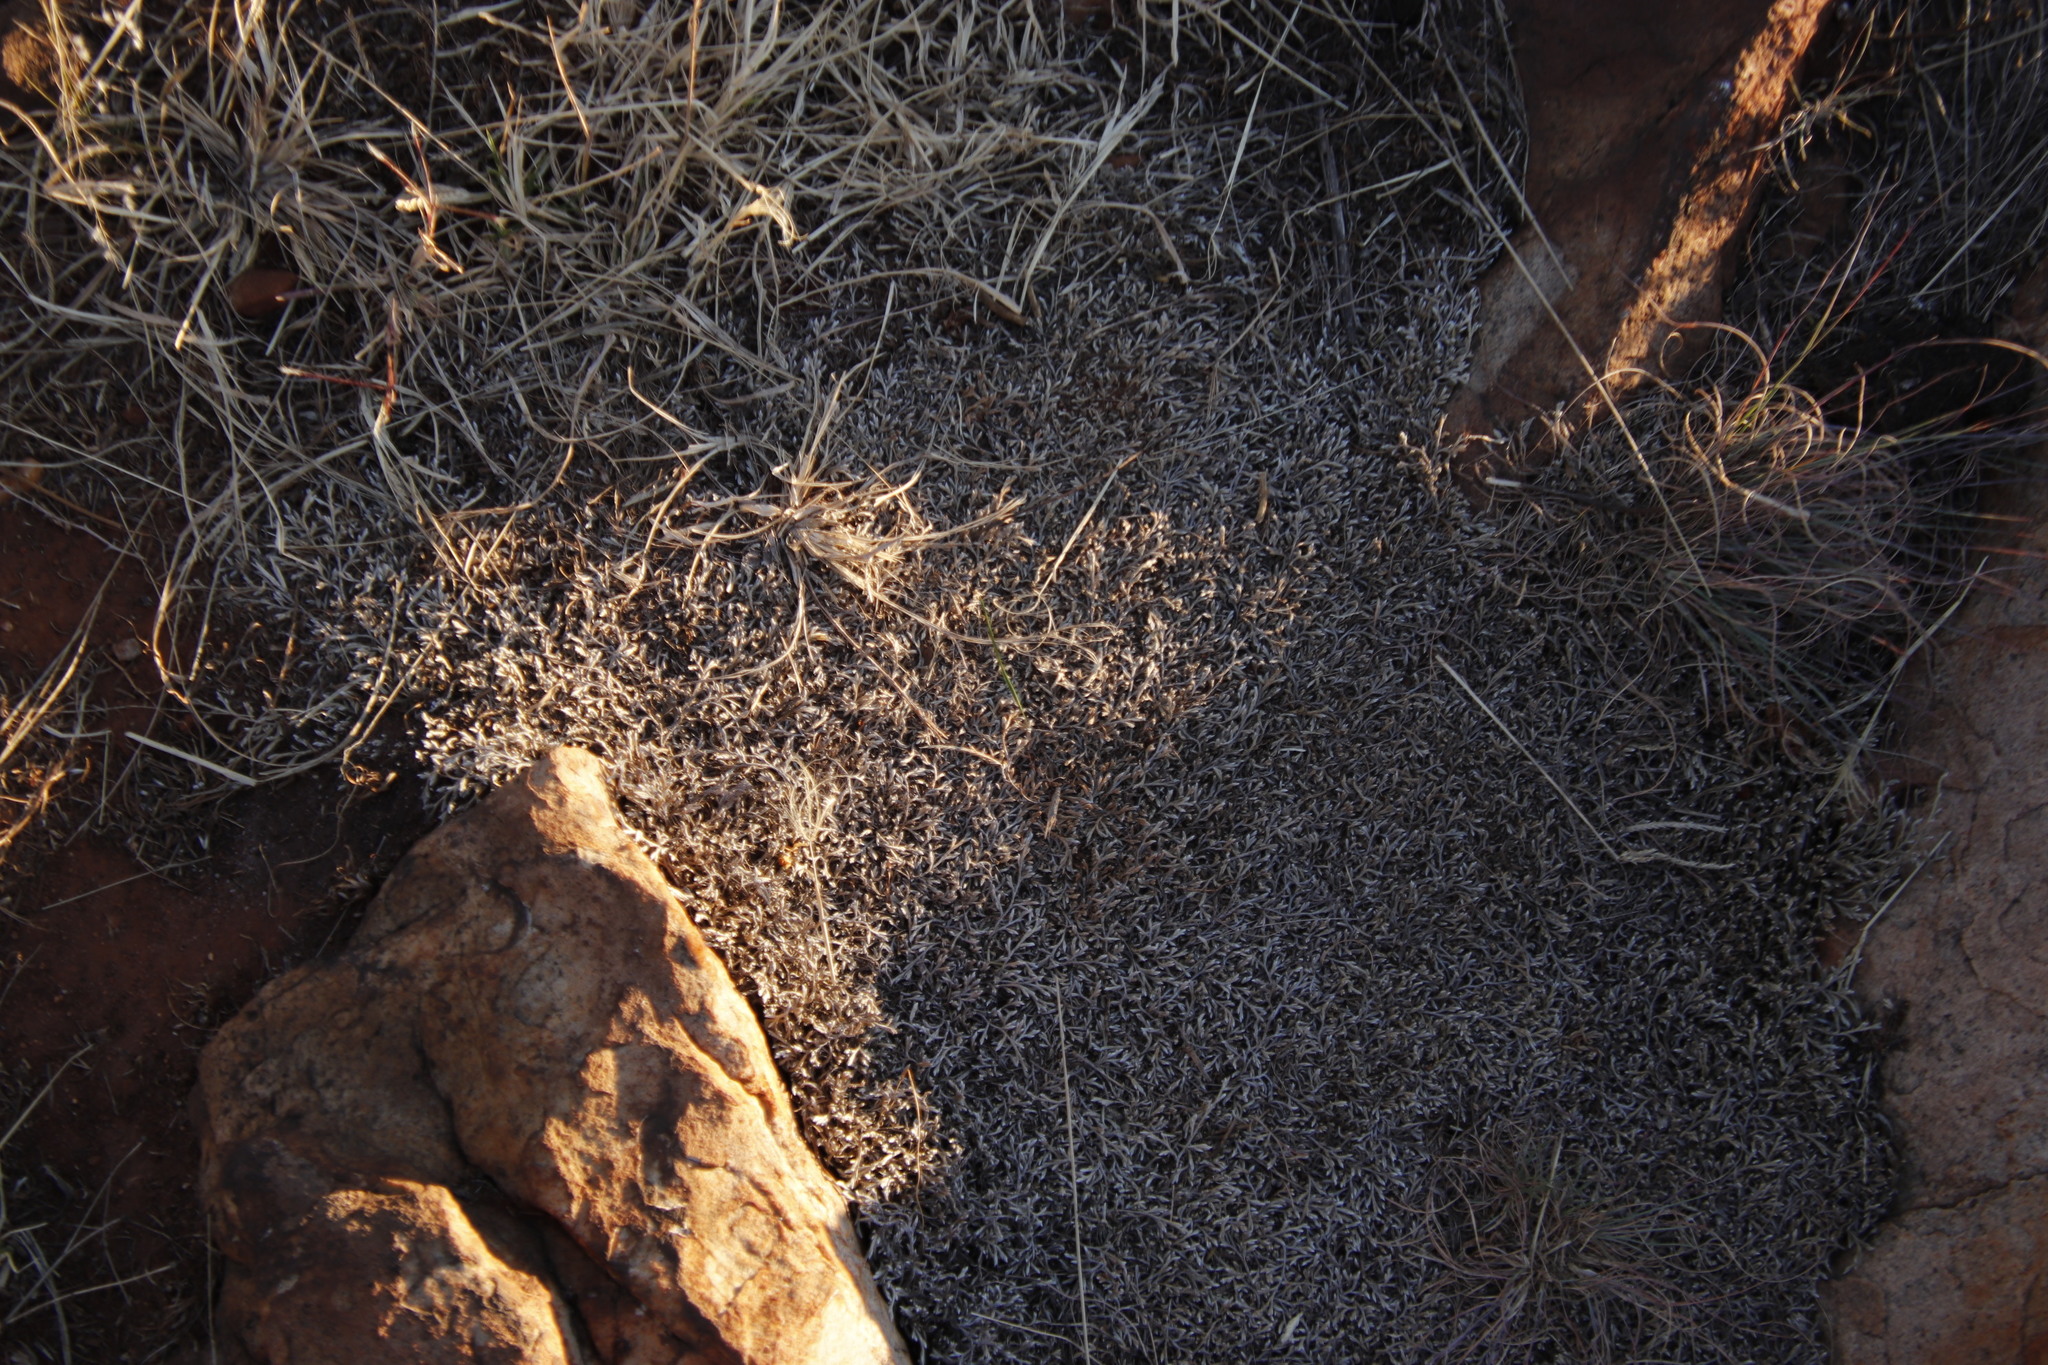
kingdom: Plantae
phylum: Tracheophyta
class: Lycopodiopsida
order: Selaginellales
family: Selaginellaceae
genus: Selaginella
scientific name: Selaginella dregei
